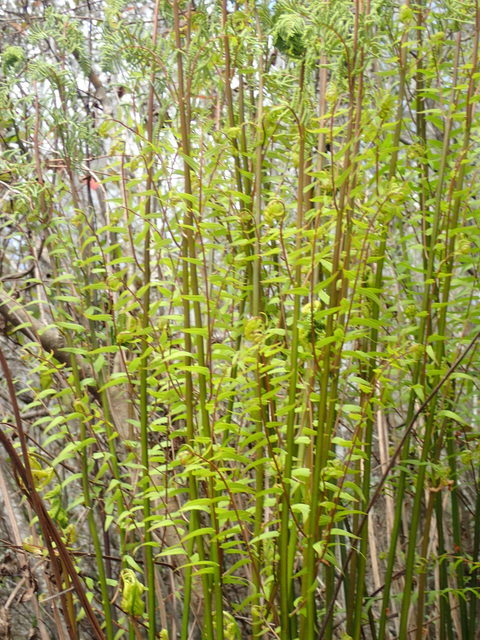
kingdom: Plantae
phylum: Tracheophyta
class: Polypodiopsida
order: Osmundales
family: Osmundaceae
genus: Osmunda
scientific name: Osmunda spectabilis
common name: American royal fern
